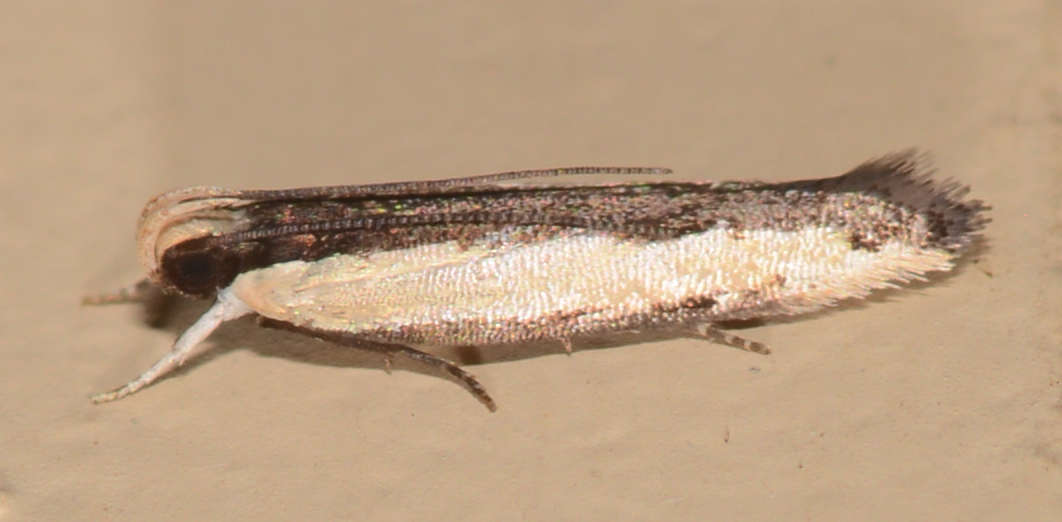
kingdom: Animalia
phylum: Arthropoda
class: Insecta
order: Lepidoptera
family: Gelechiidae
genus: Ardozyga
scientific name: Ardozyga stratifera
